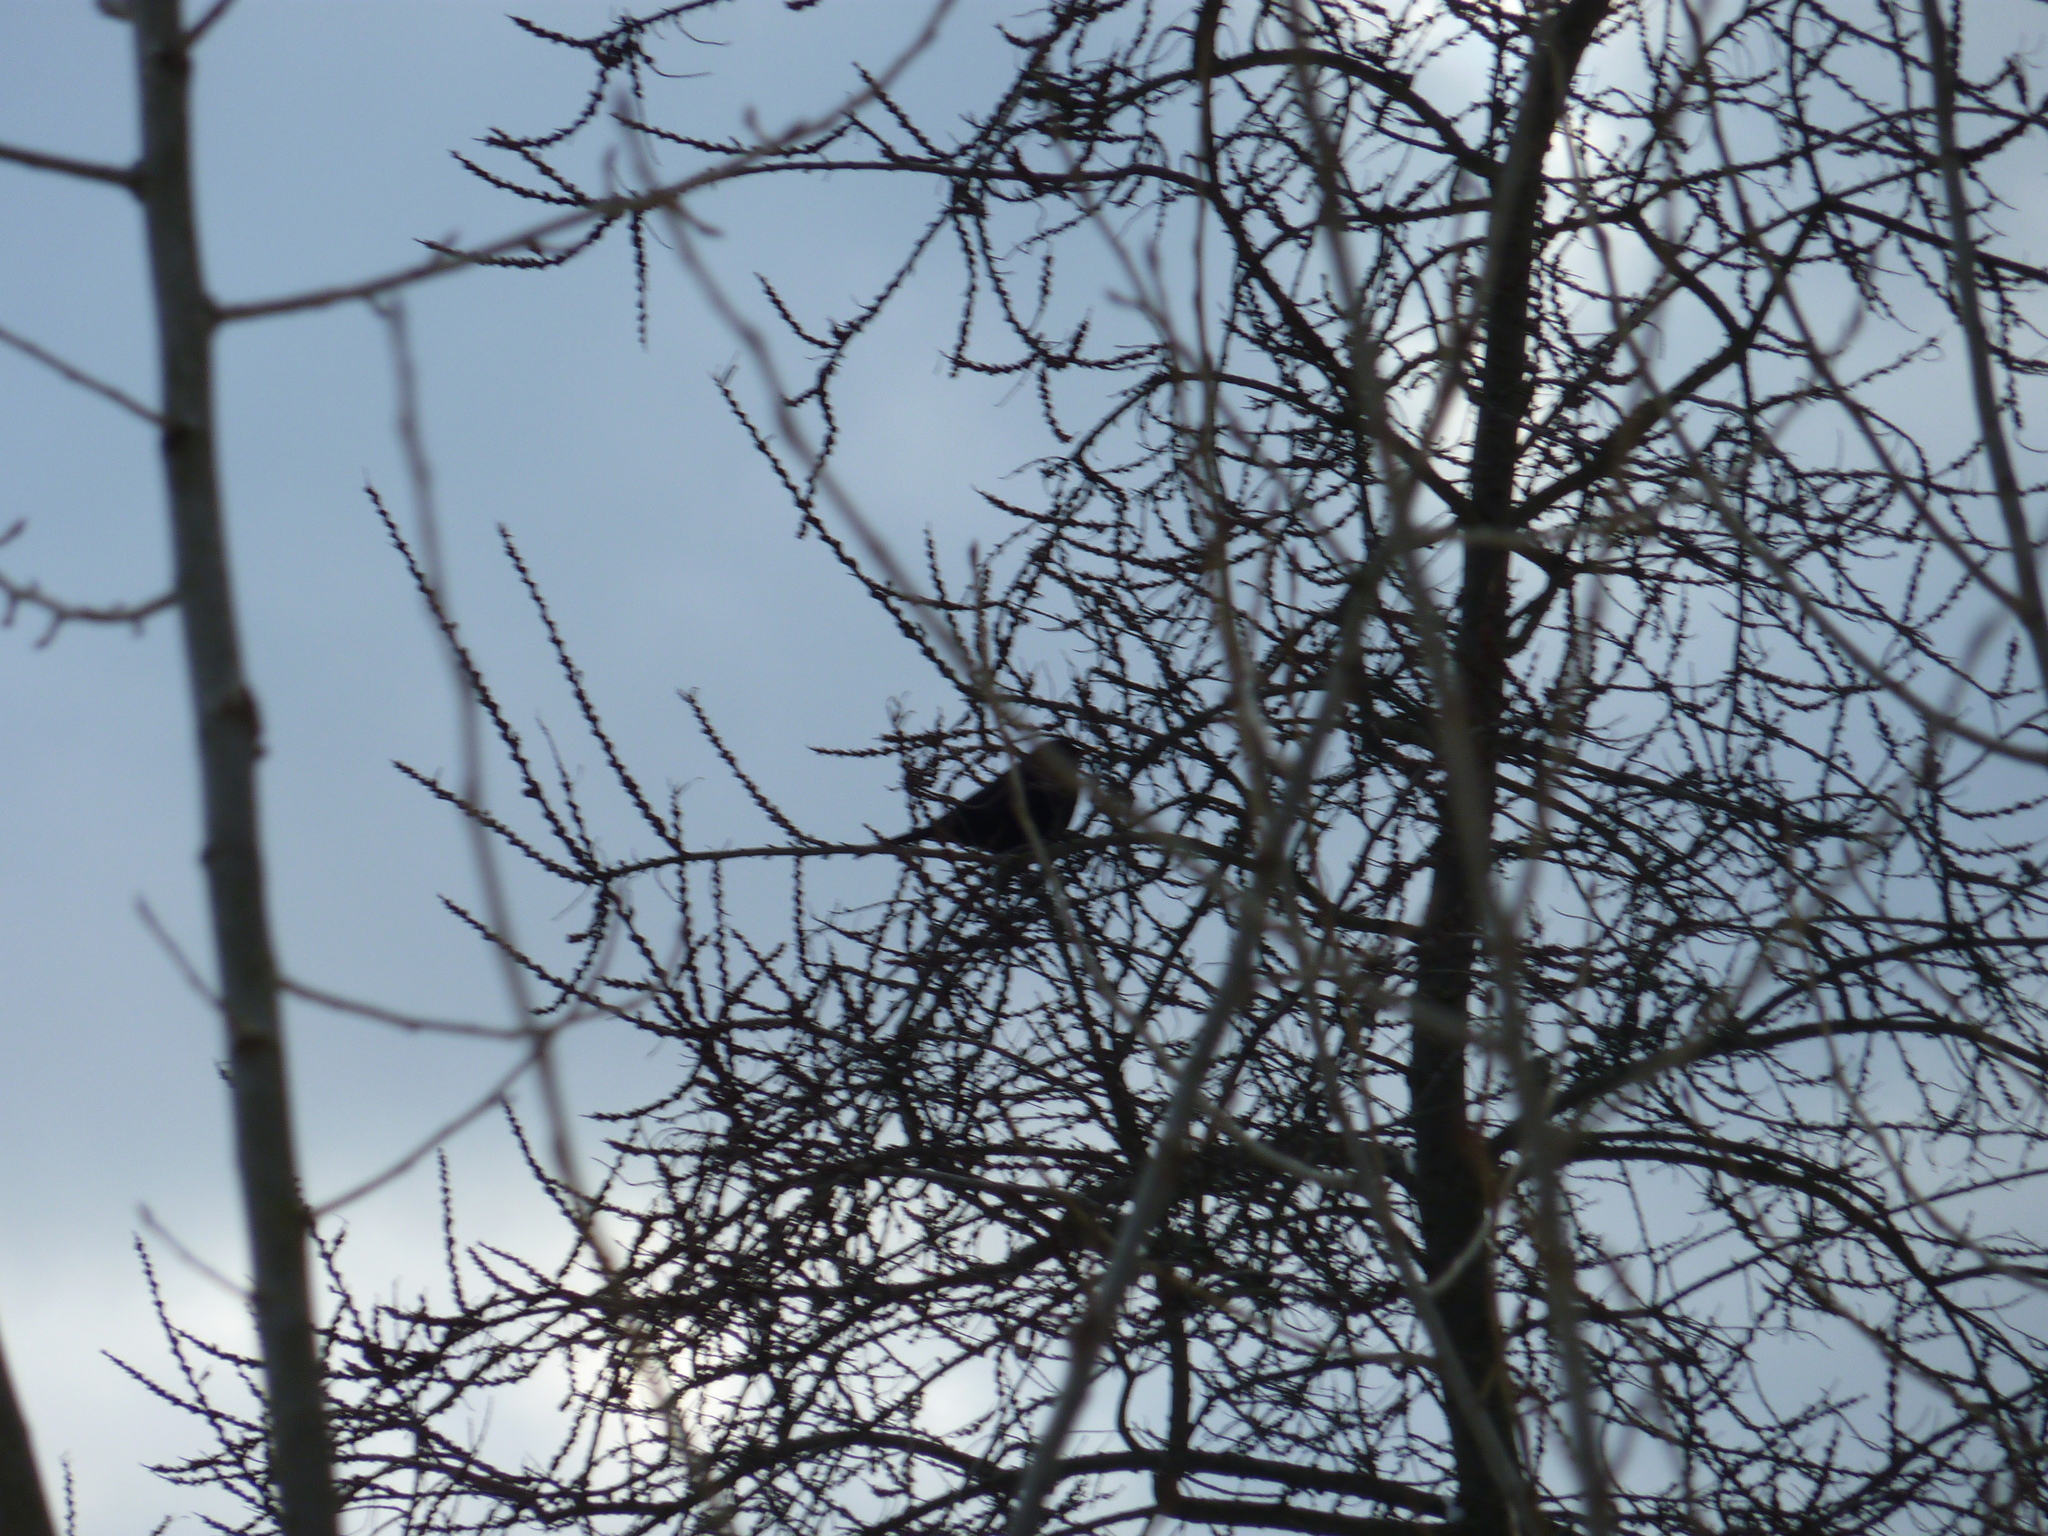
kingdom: Animalia
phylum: Chordata
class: Aves
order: Passeriformes
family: Turdidae
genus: Turdus
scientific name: Turdus merula
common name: Common blackbird
